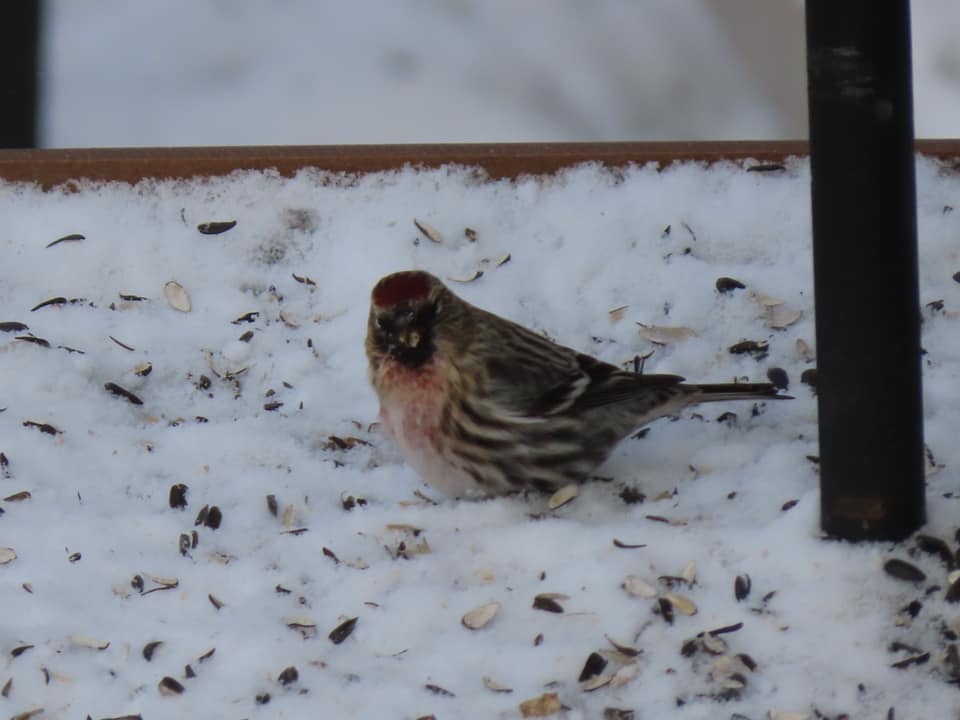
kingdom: Animalia
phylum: Chordata
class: Aves
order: Passeriformes
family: Fringillidae
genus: Acanthis
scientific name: Acanthis flammea
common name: Common redpoll
